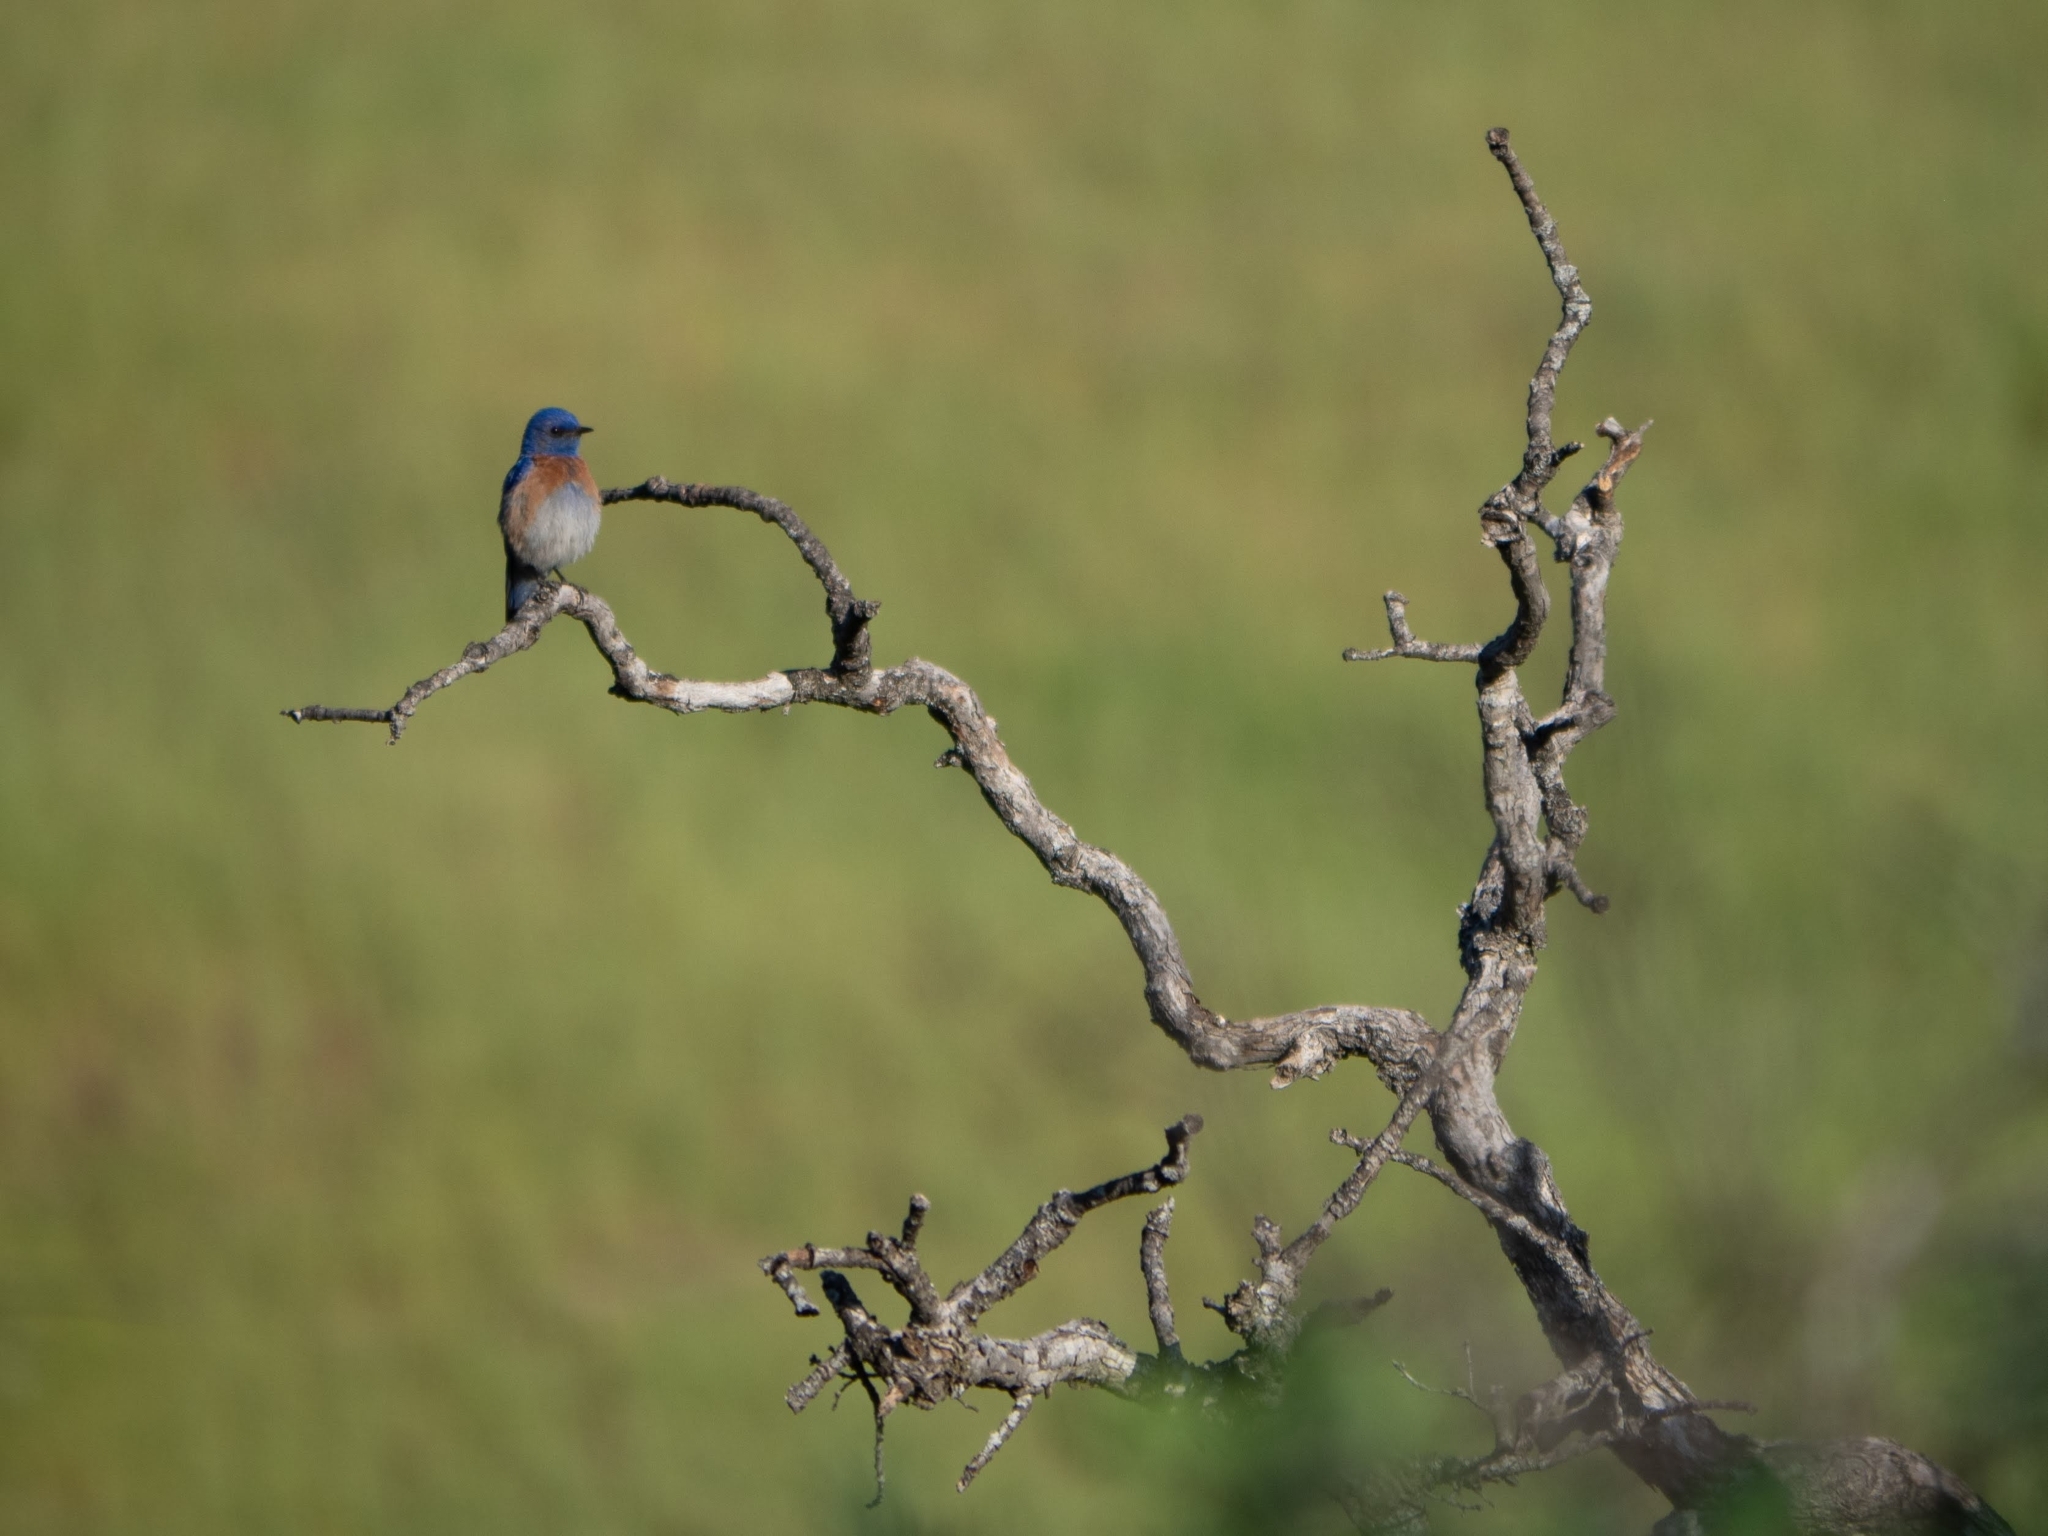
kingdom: Animalia
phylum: Chordata
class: Aves
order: Passeriformes
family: Turdidae
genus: Sialia
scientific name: Sialia mexicana
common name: Western bluebird
